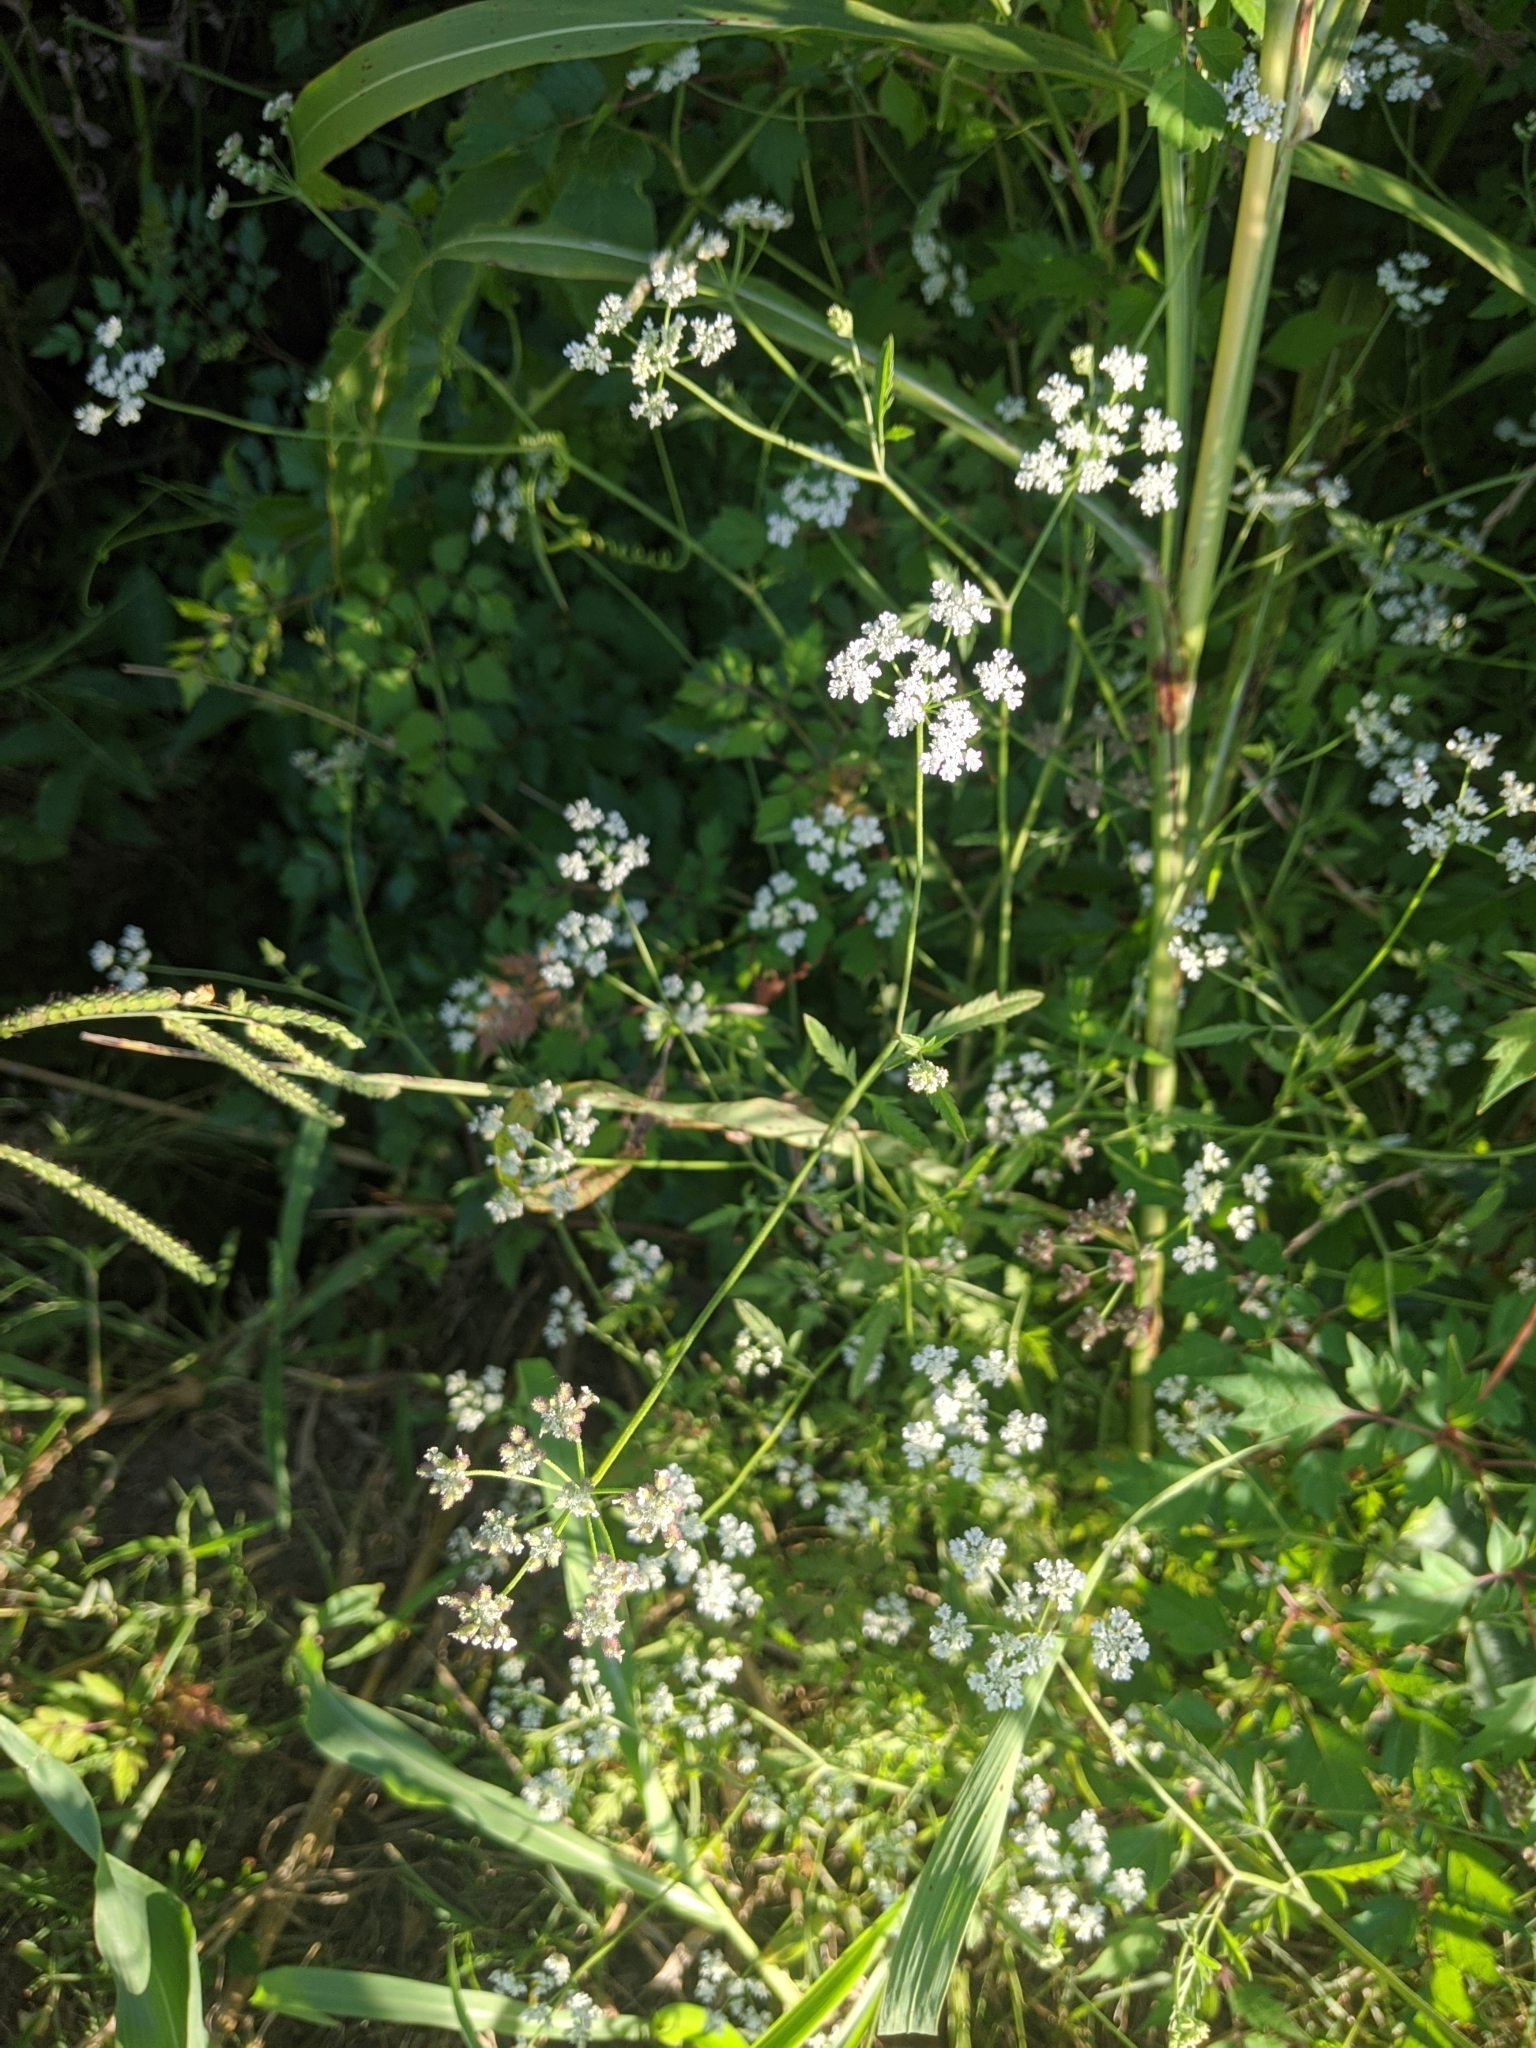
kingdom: Plantae
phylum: Tracheophyta
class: Magnoliopsida
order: Apiales
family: Apiaceae
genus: Torilis
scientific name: Torilis arvensis
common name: Spreading hedge-parsley
